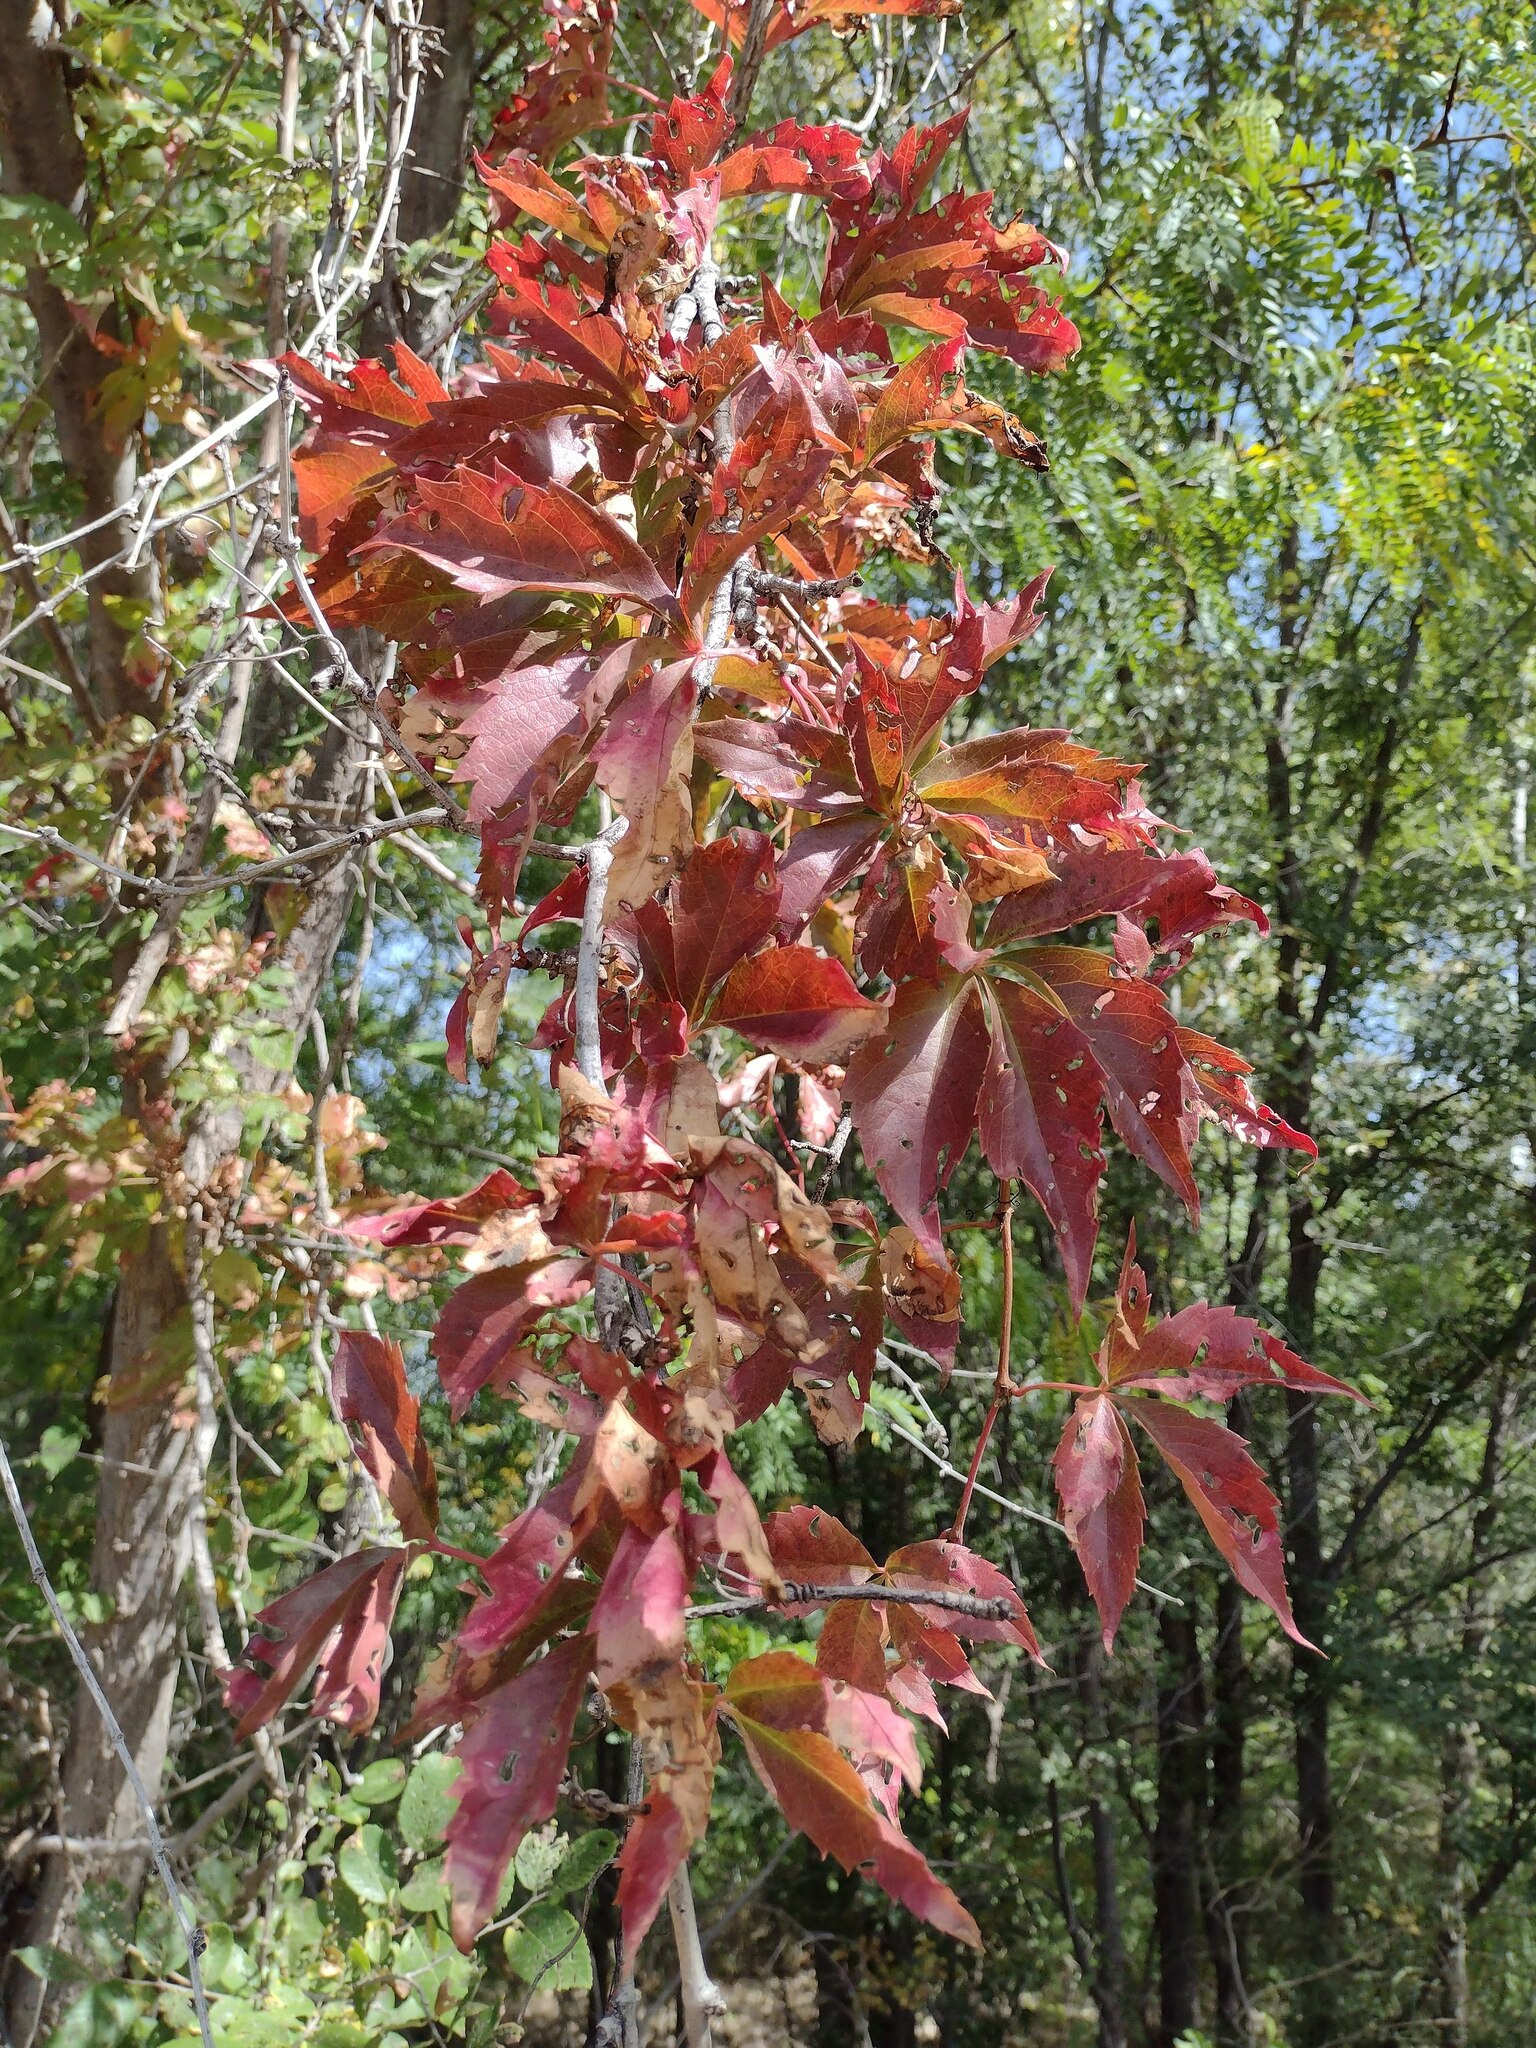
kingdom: Plantae
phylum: Tracheophyta
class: Magnoliopsida
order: Vitales
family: Vitaceae
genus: Parthenocissus
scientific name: Parthenocissus quinquefolia
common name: Virginia-creeper
